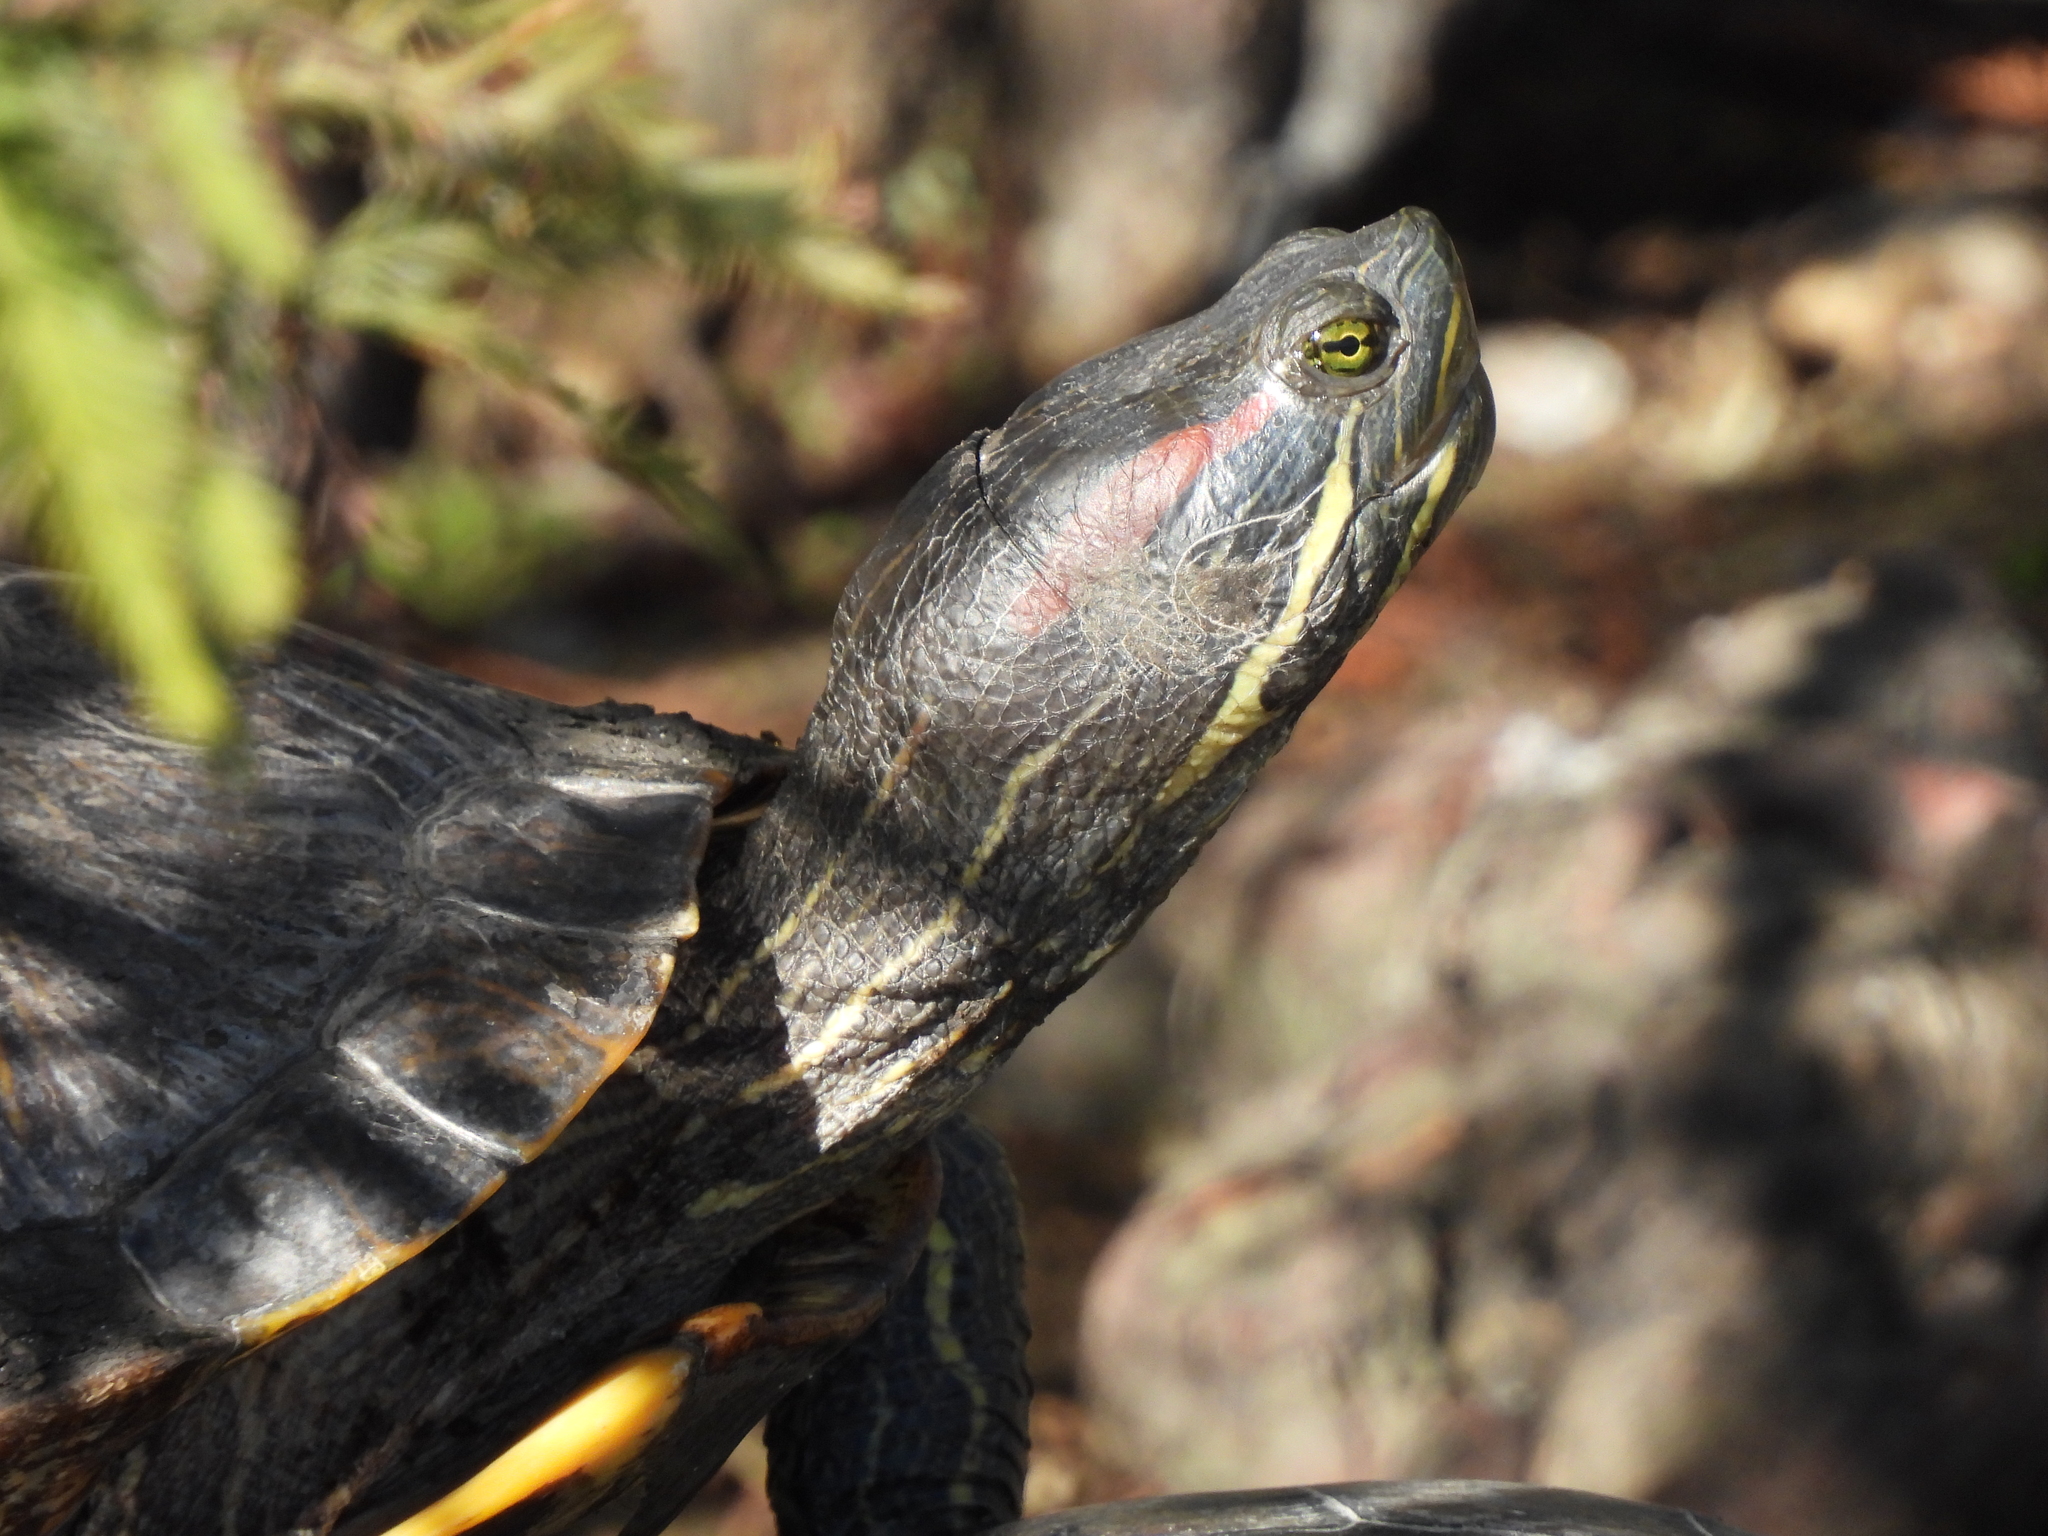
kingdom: Animalia
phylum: Chordata
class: Testudines
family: Emydidae
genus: Trachemys
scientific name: Trachemys scripta
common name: Slider
